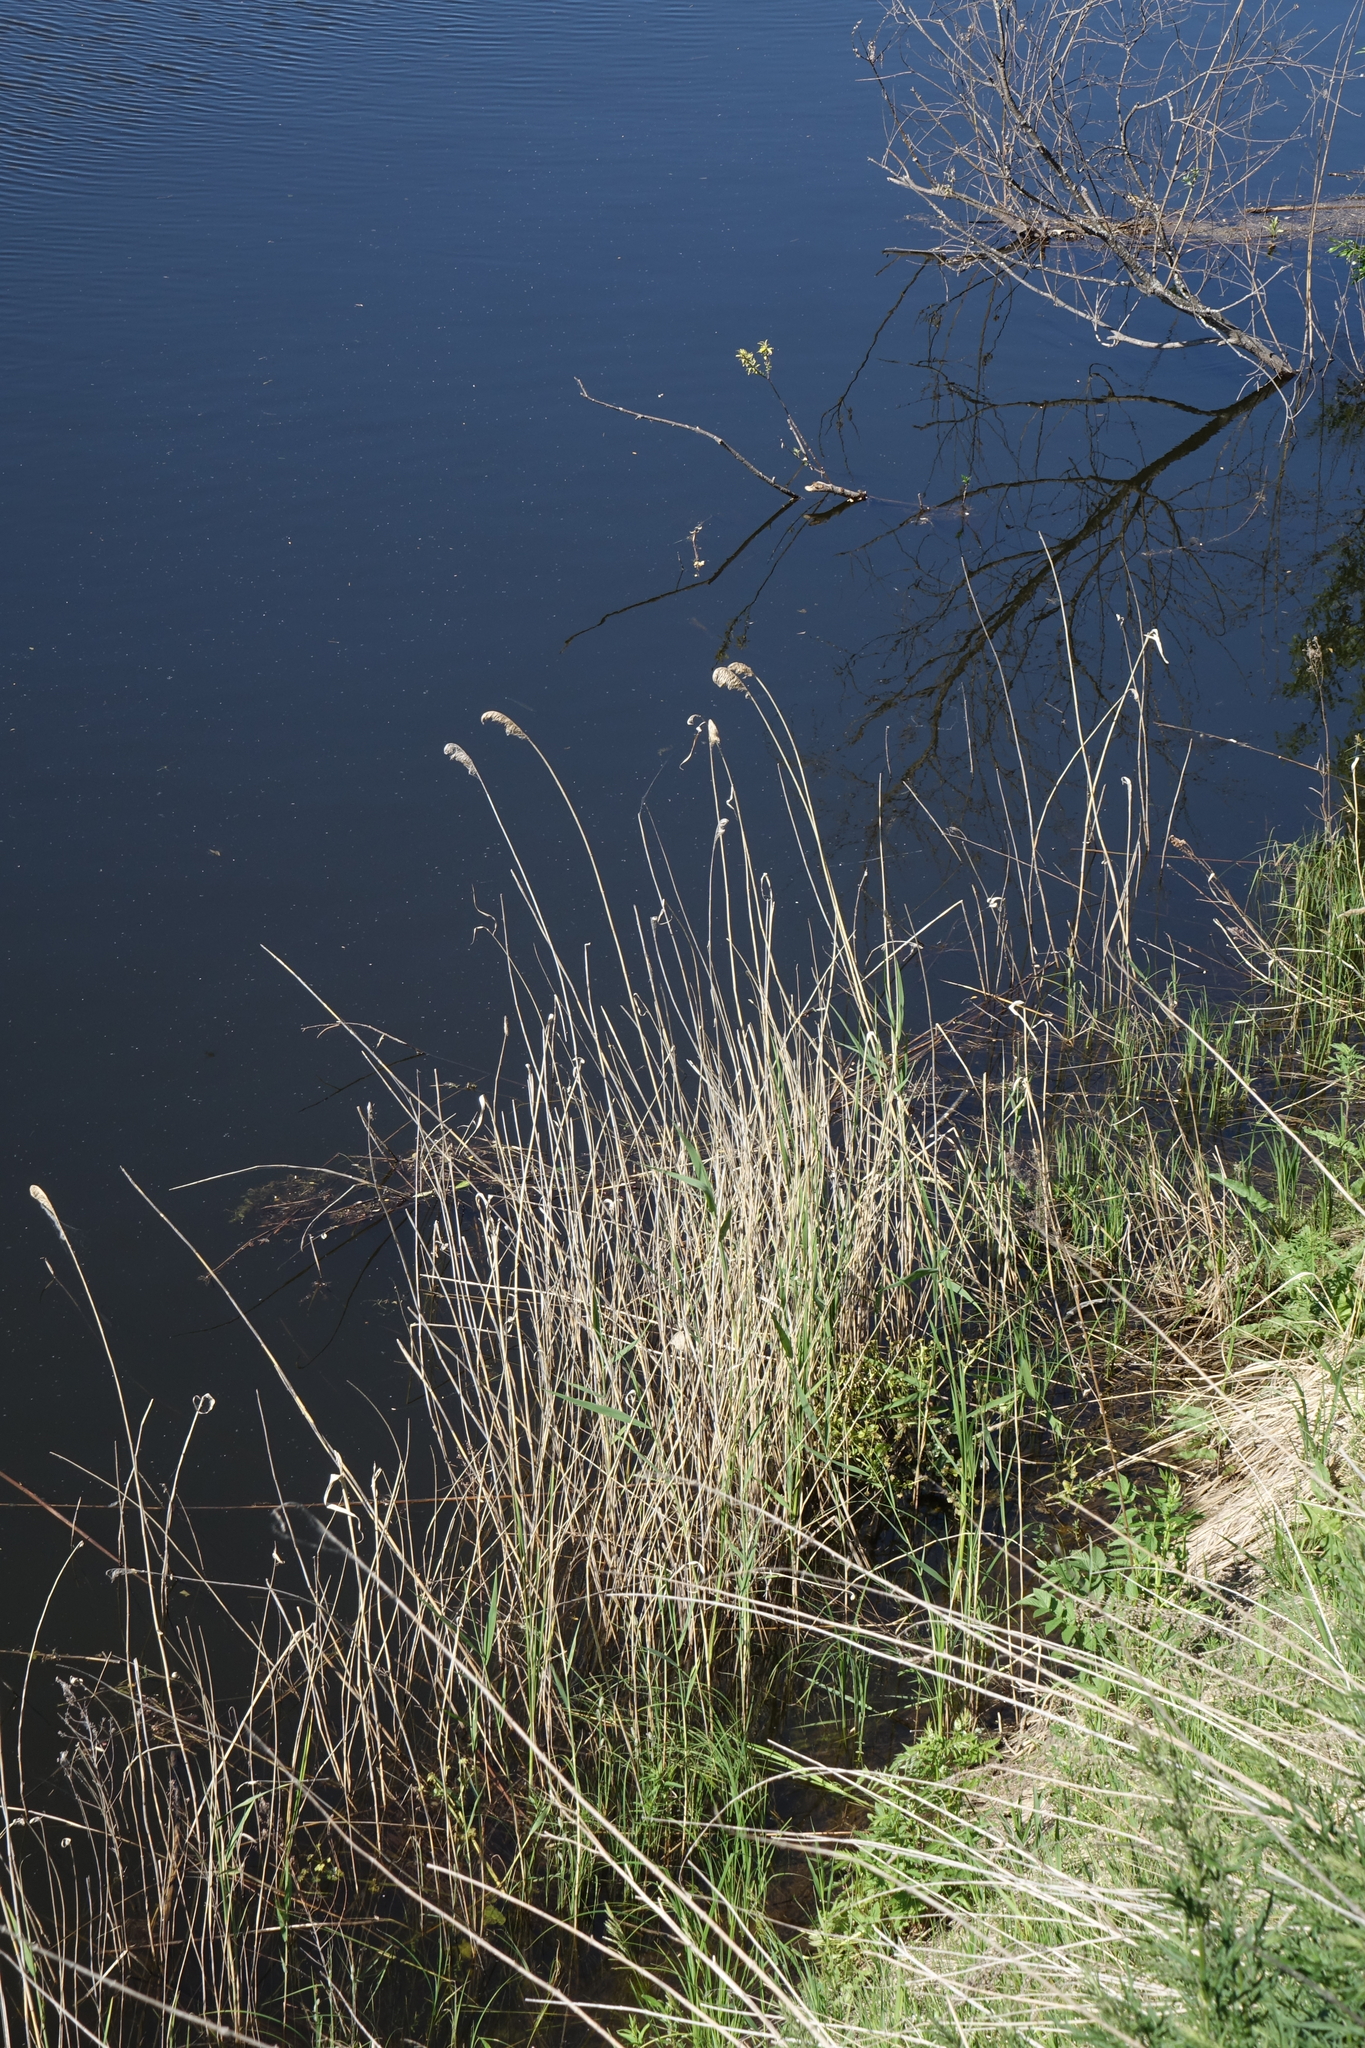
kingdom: Plantae
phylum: Tracheophyta
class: Liliopsida
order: Poales
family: Poaceae
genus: Phragmites
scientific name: Phragmites australis
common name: Common reed
